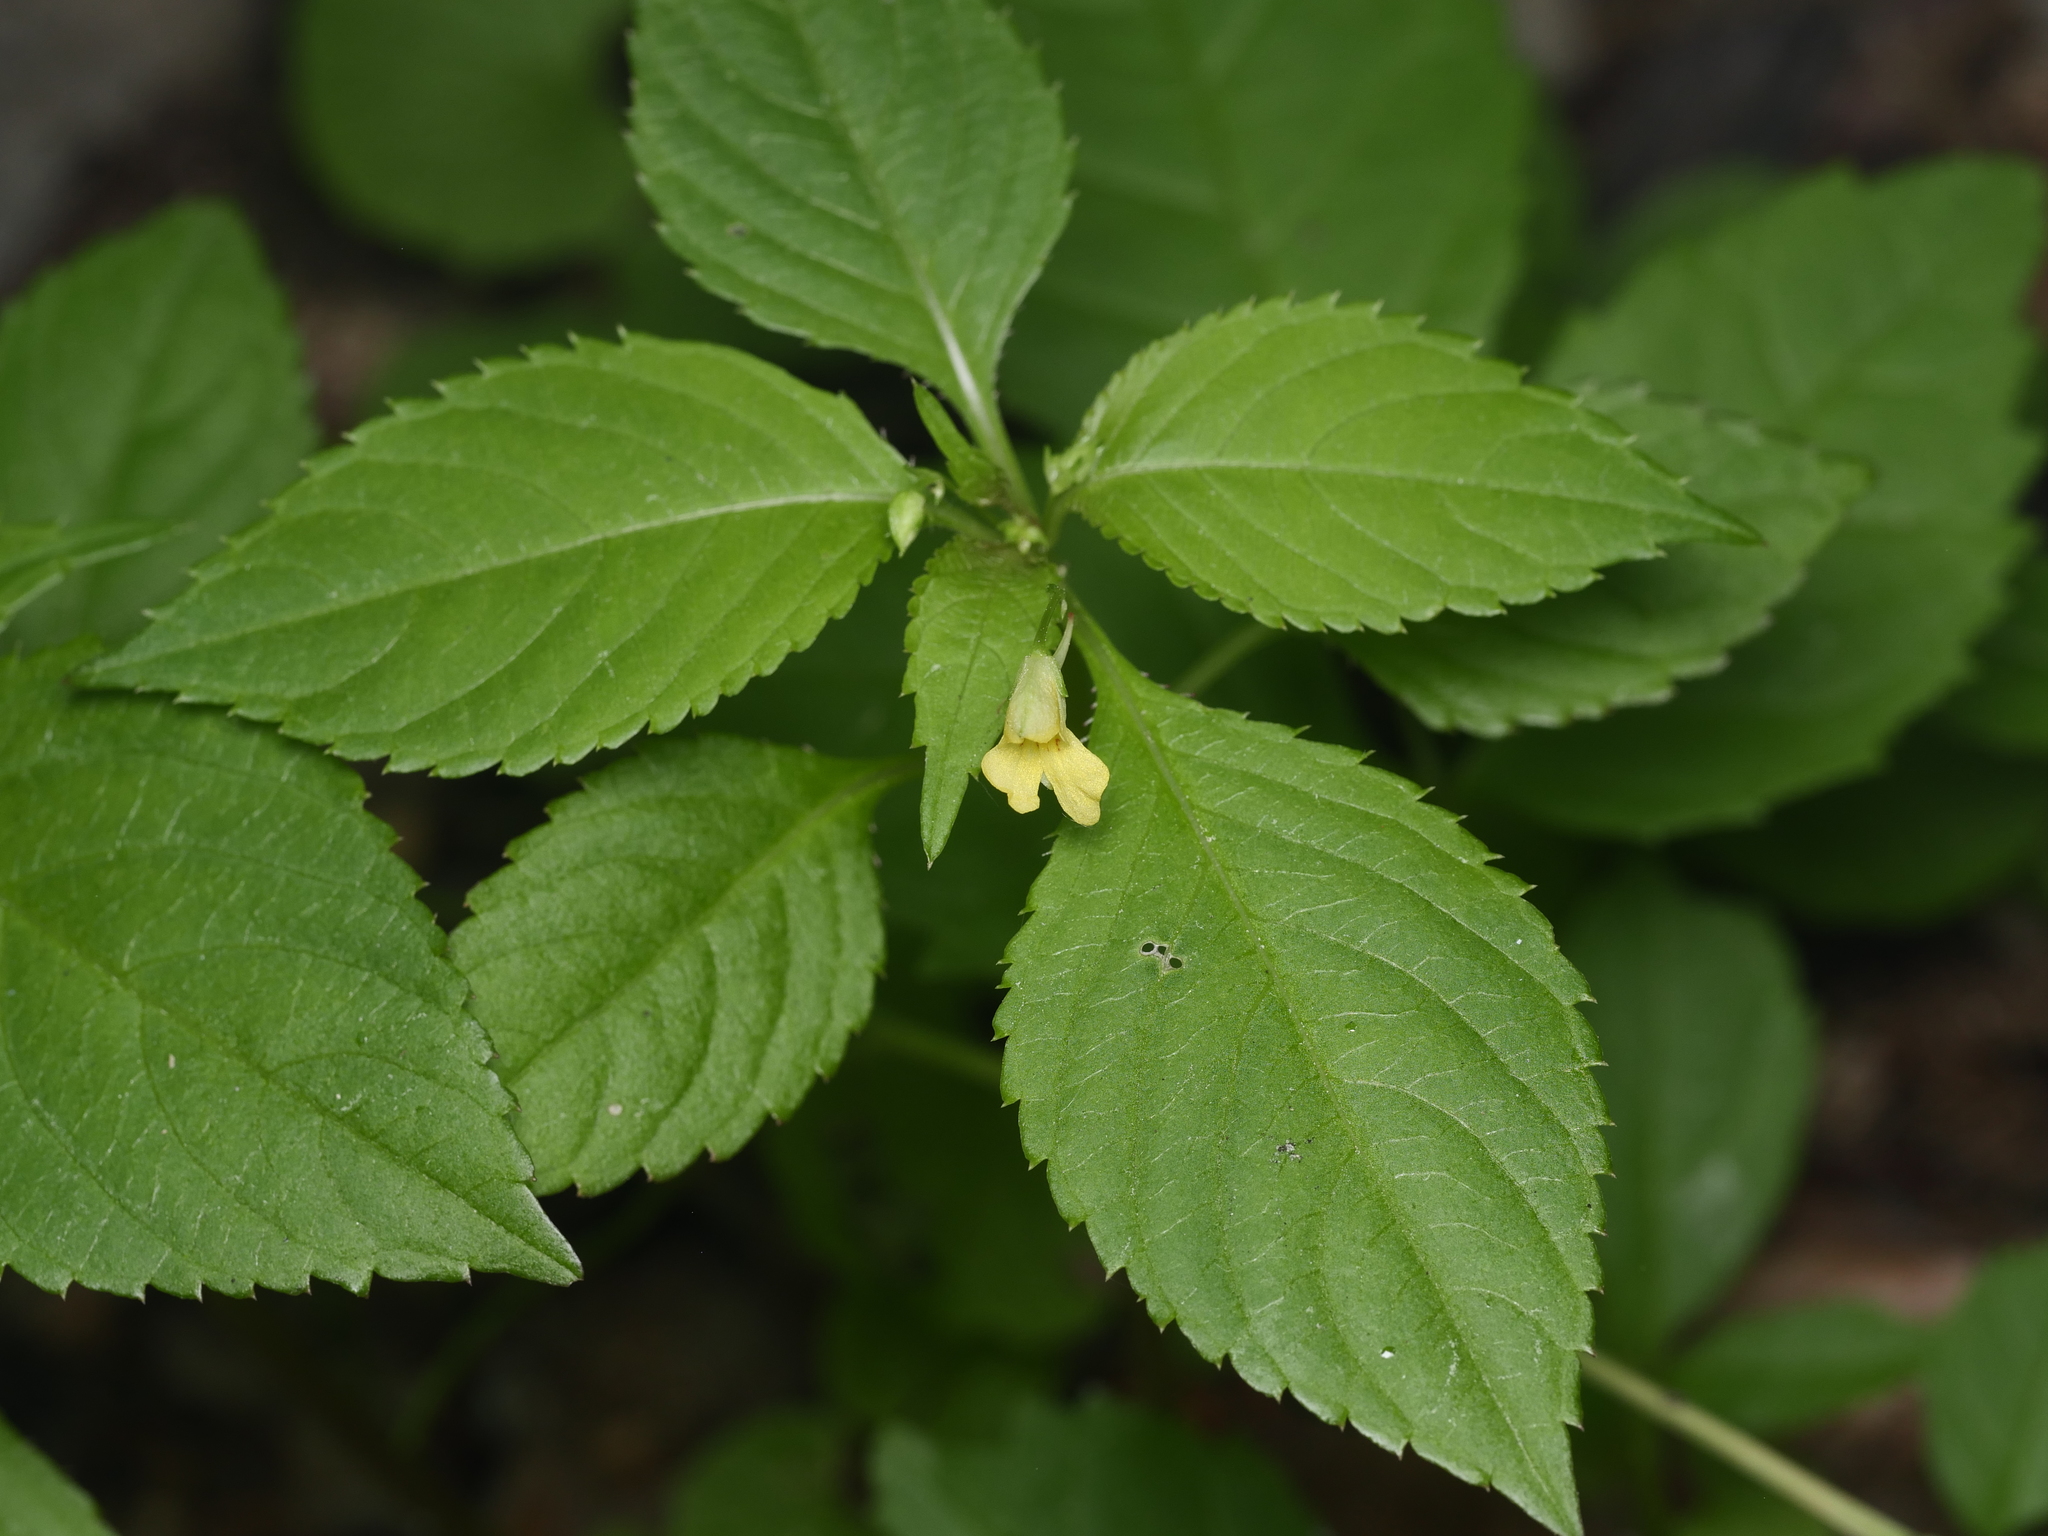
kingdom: Plantae
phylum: Tracheophyta
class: Magnoliopsida
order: Ericales
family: Balsaminaceae
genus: Impatiens
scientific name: Impatiens parviflora
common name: Small balsam
